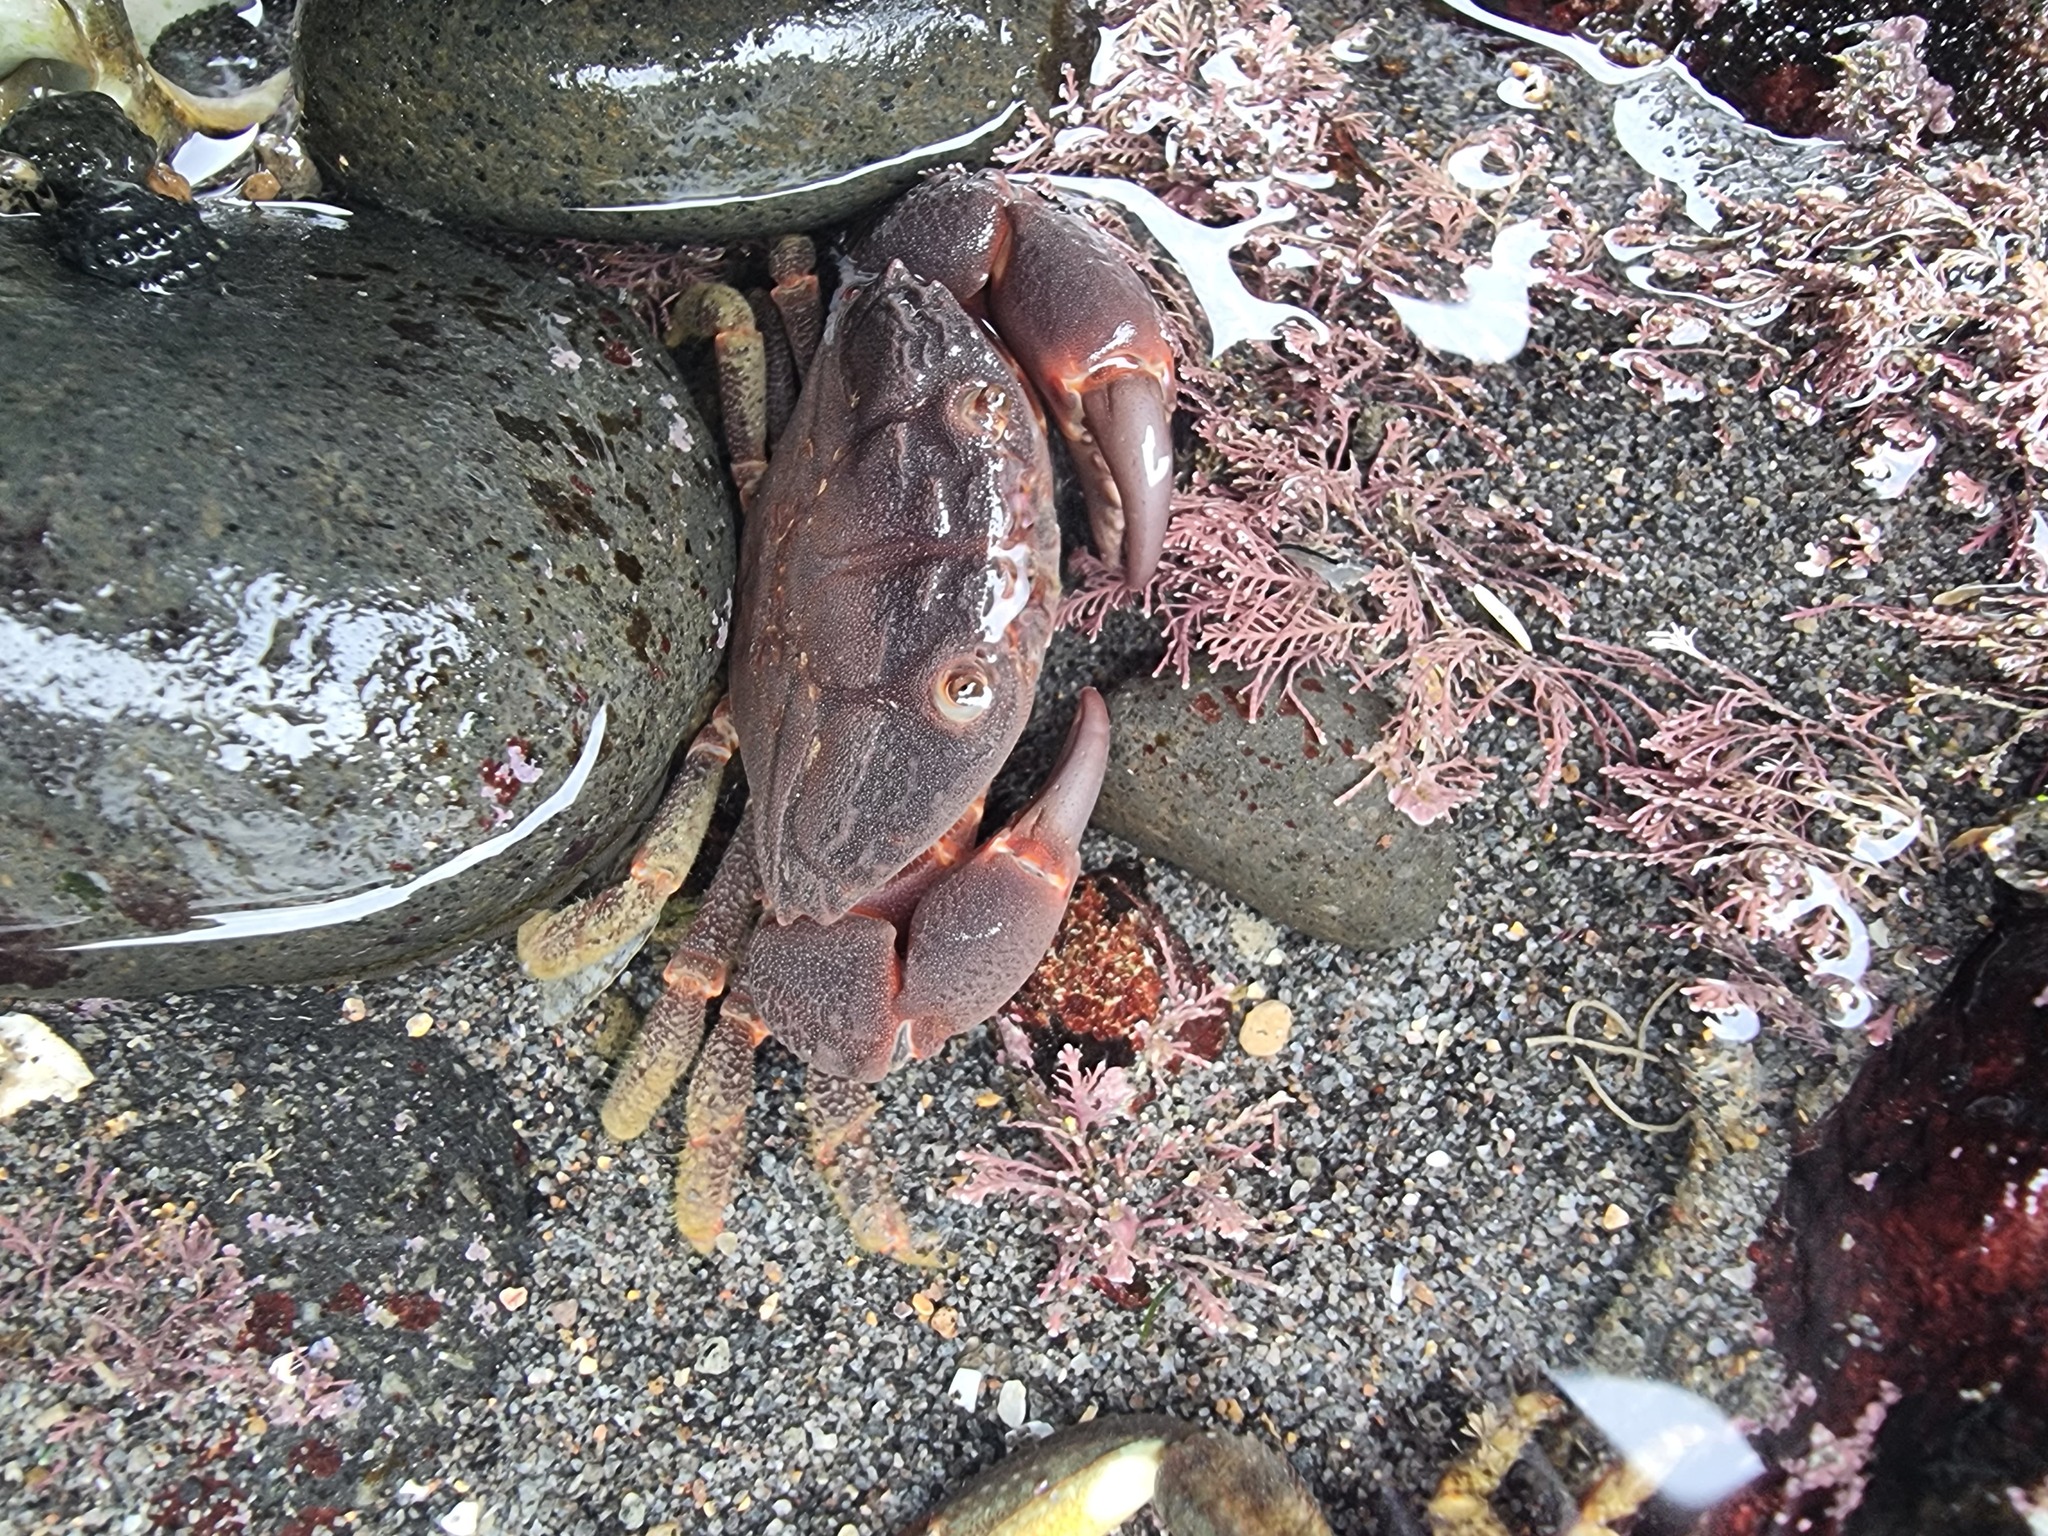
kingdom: Animalia
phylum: Arthropoda
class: Malacostraca
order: Decapoda
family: Oziidae
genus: Ozius
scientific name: Ozius deplanatus
